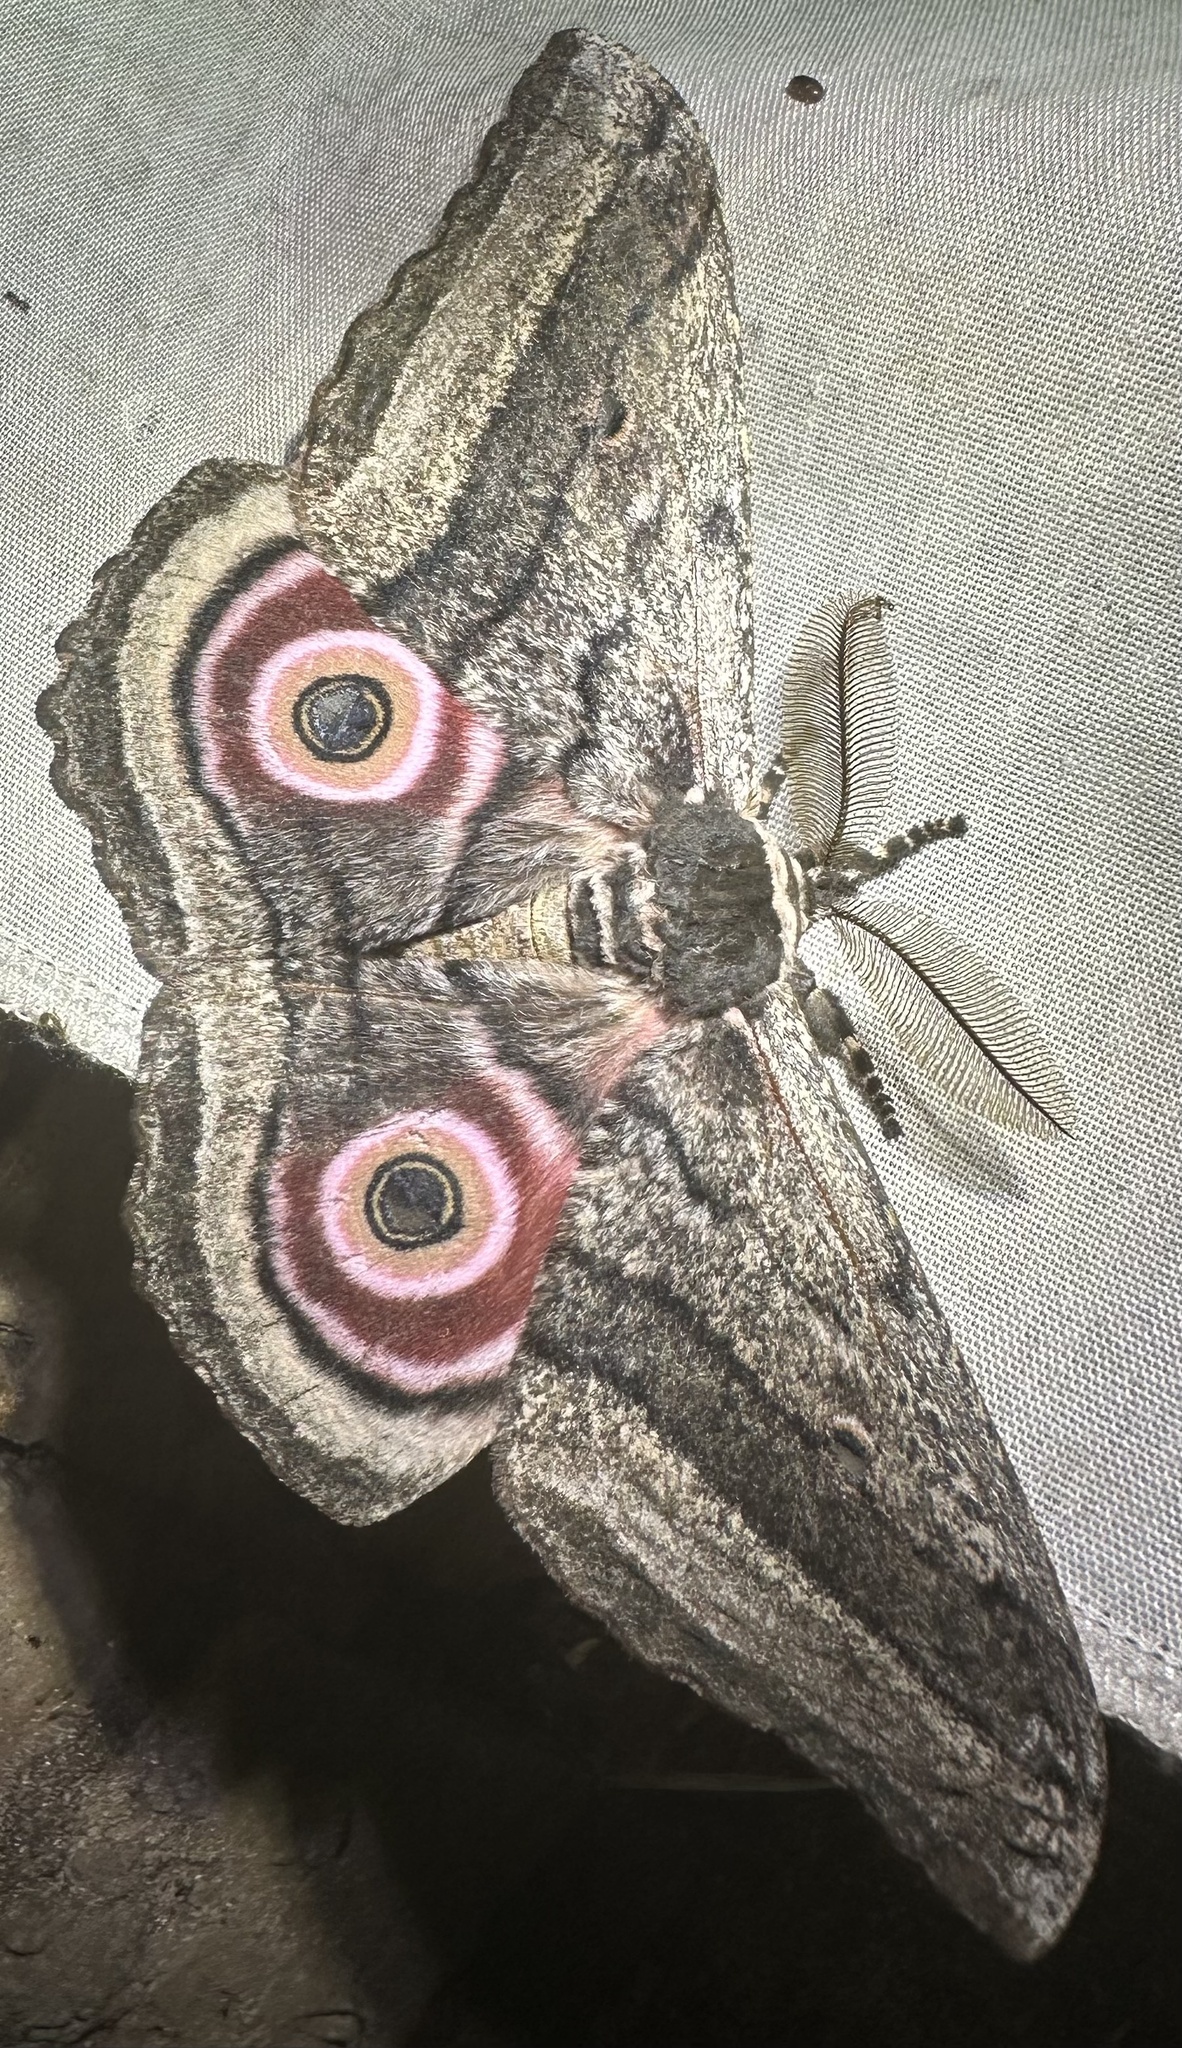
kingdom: Animalia
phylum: Arthropoda
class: Insecta
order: Lepidoptera
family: Saturniidae
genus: Gynanisa
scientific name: Gynanisa maja
